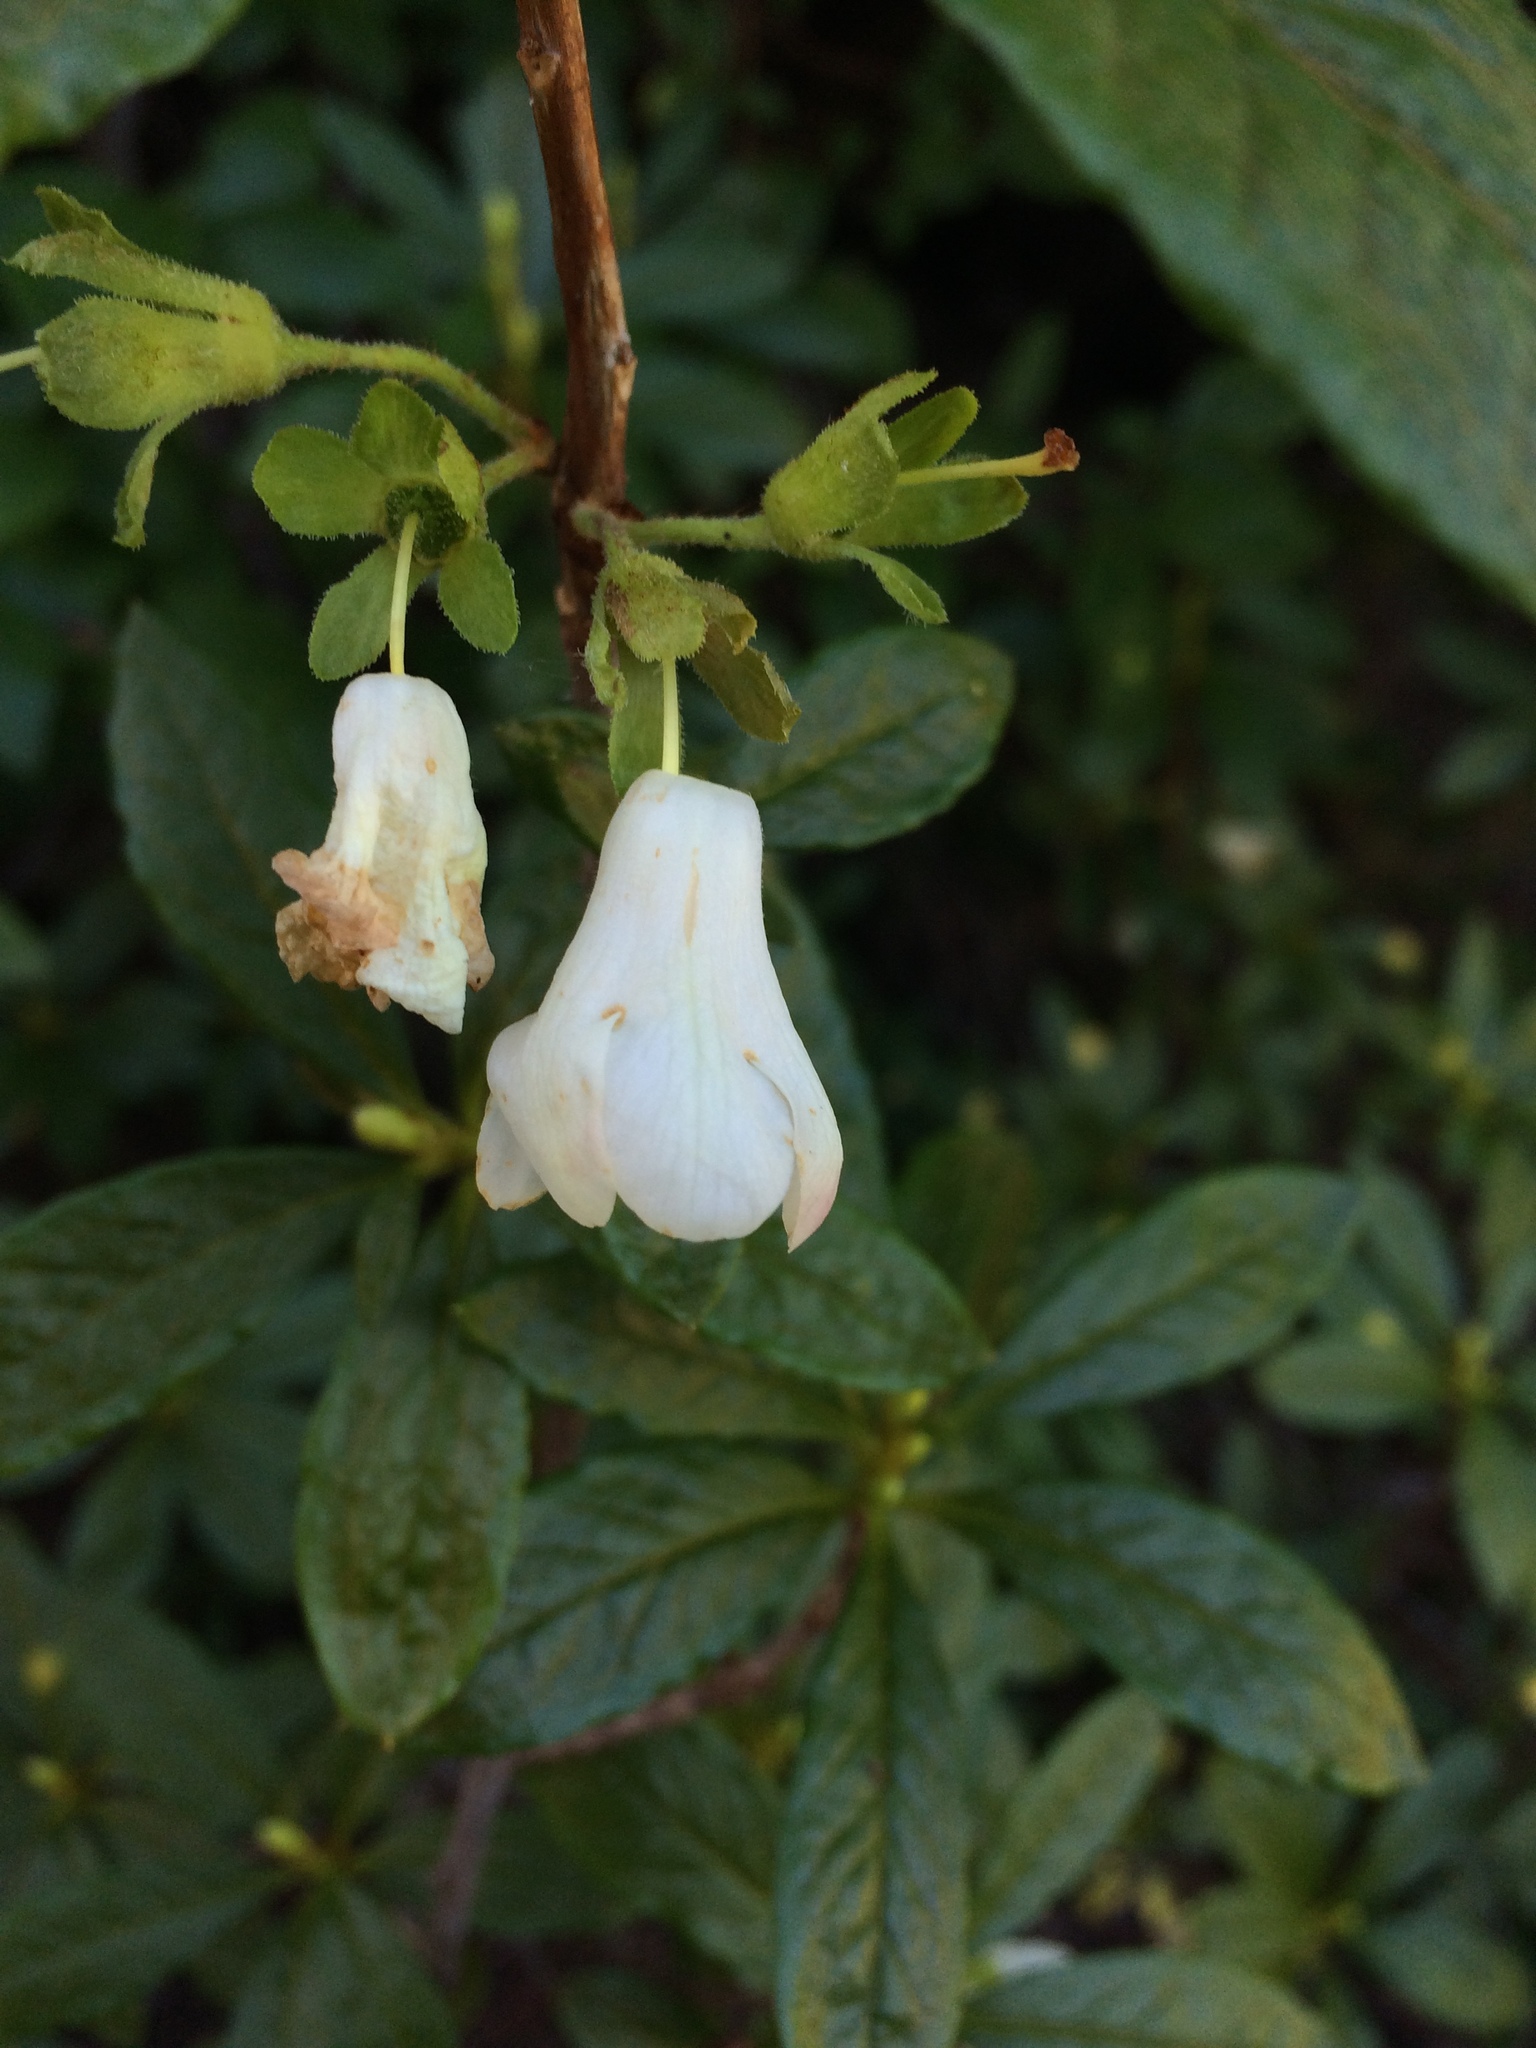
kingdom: Plantae
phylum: Tracheophyta
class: Magnoliopsida
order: Ericales
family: Ericaceae
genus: Rhododendron
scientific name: Rhododendron albiflorum
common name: White rhododendron
